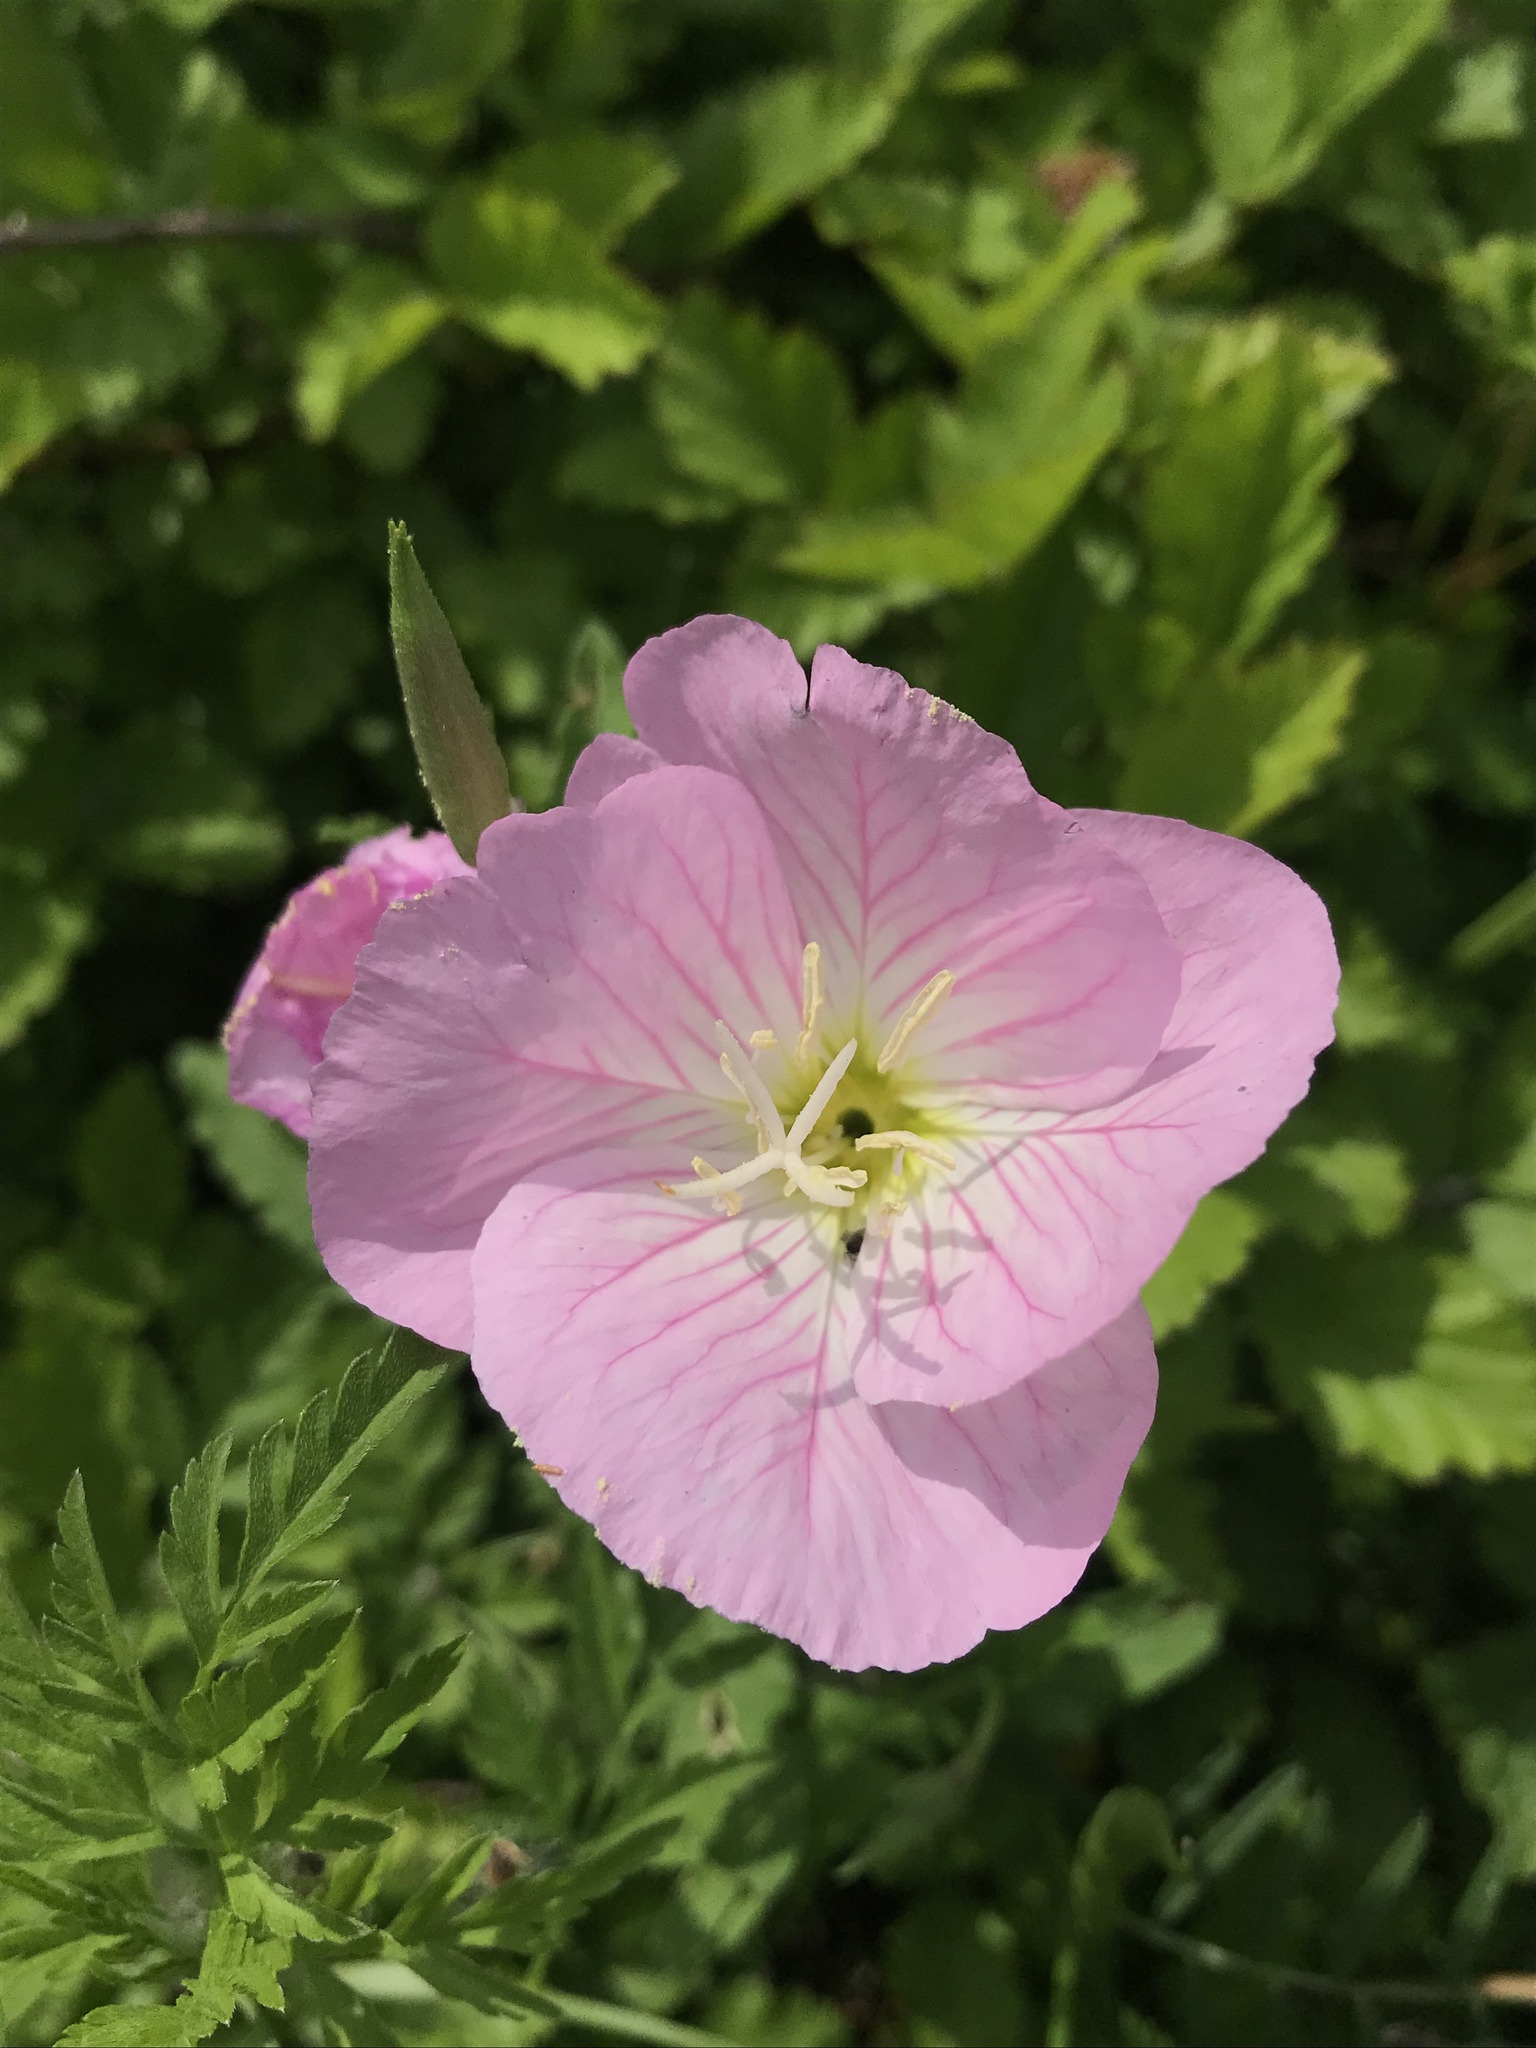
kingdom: Plantae
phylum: Tracheophyta
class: Magnoliopsida
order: Myrtales
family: Onagraceae
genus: Oenothera
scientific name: Oenothera speciosa
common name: White evening-primrose
